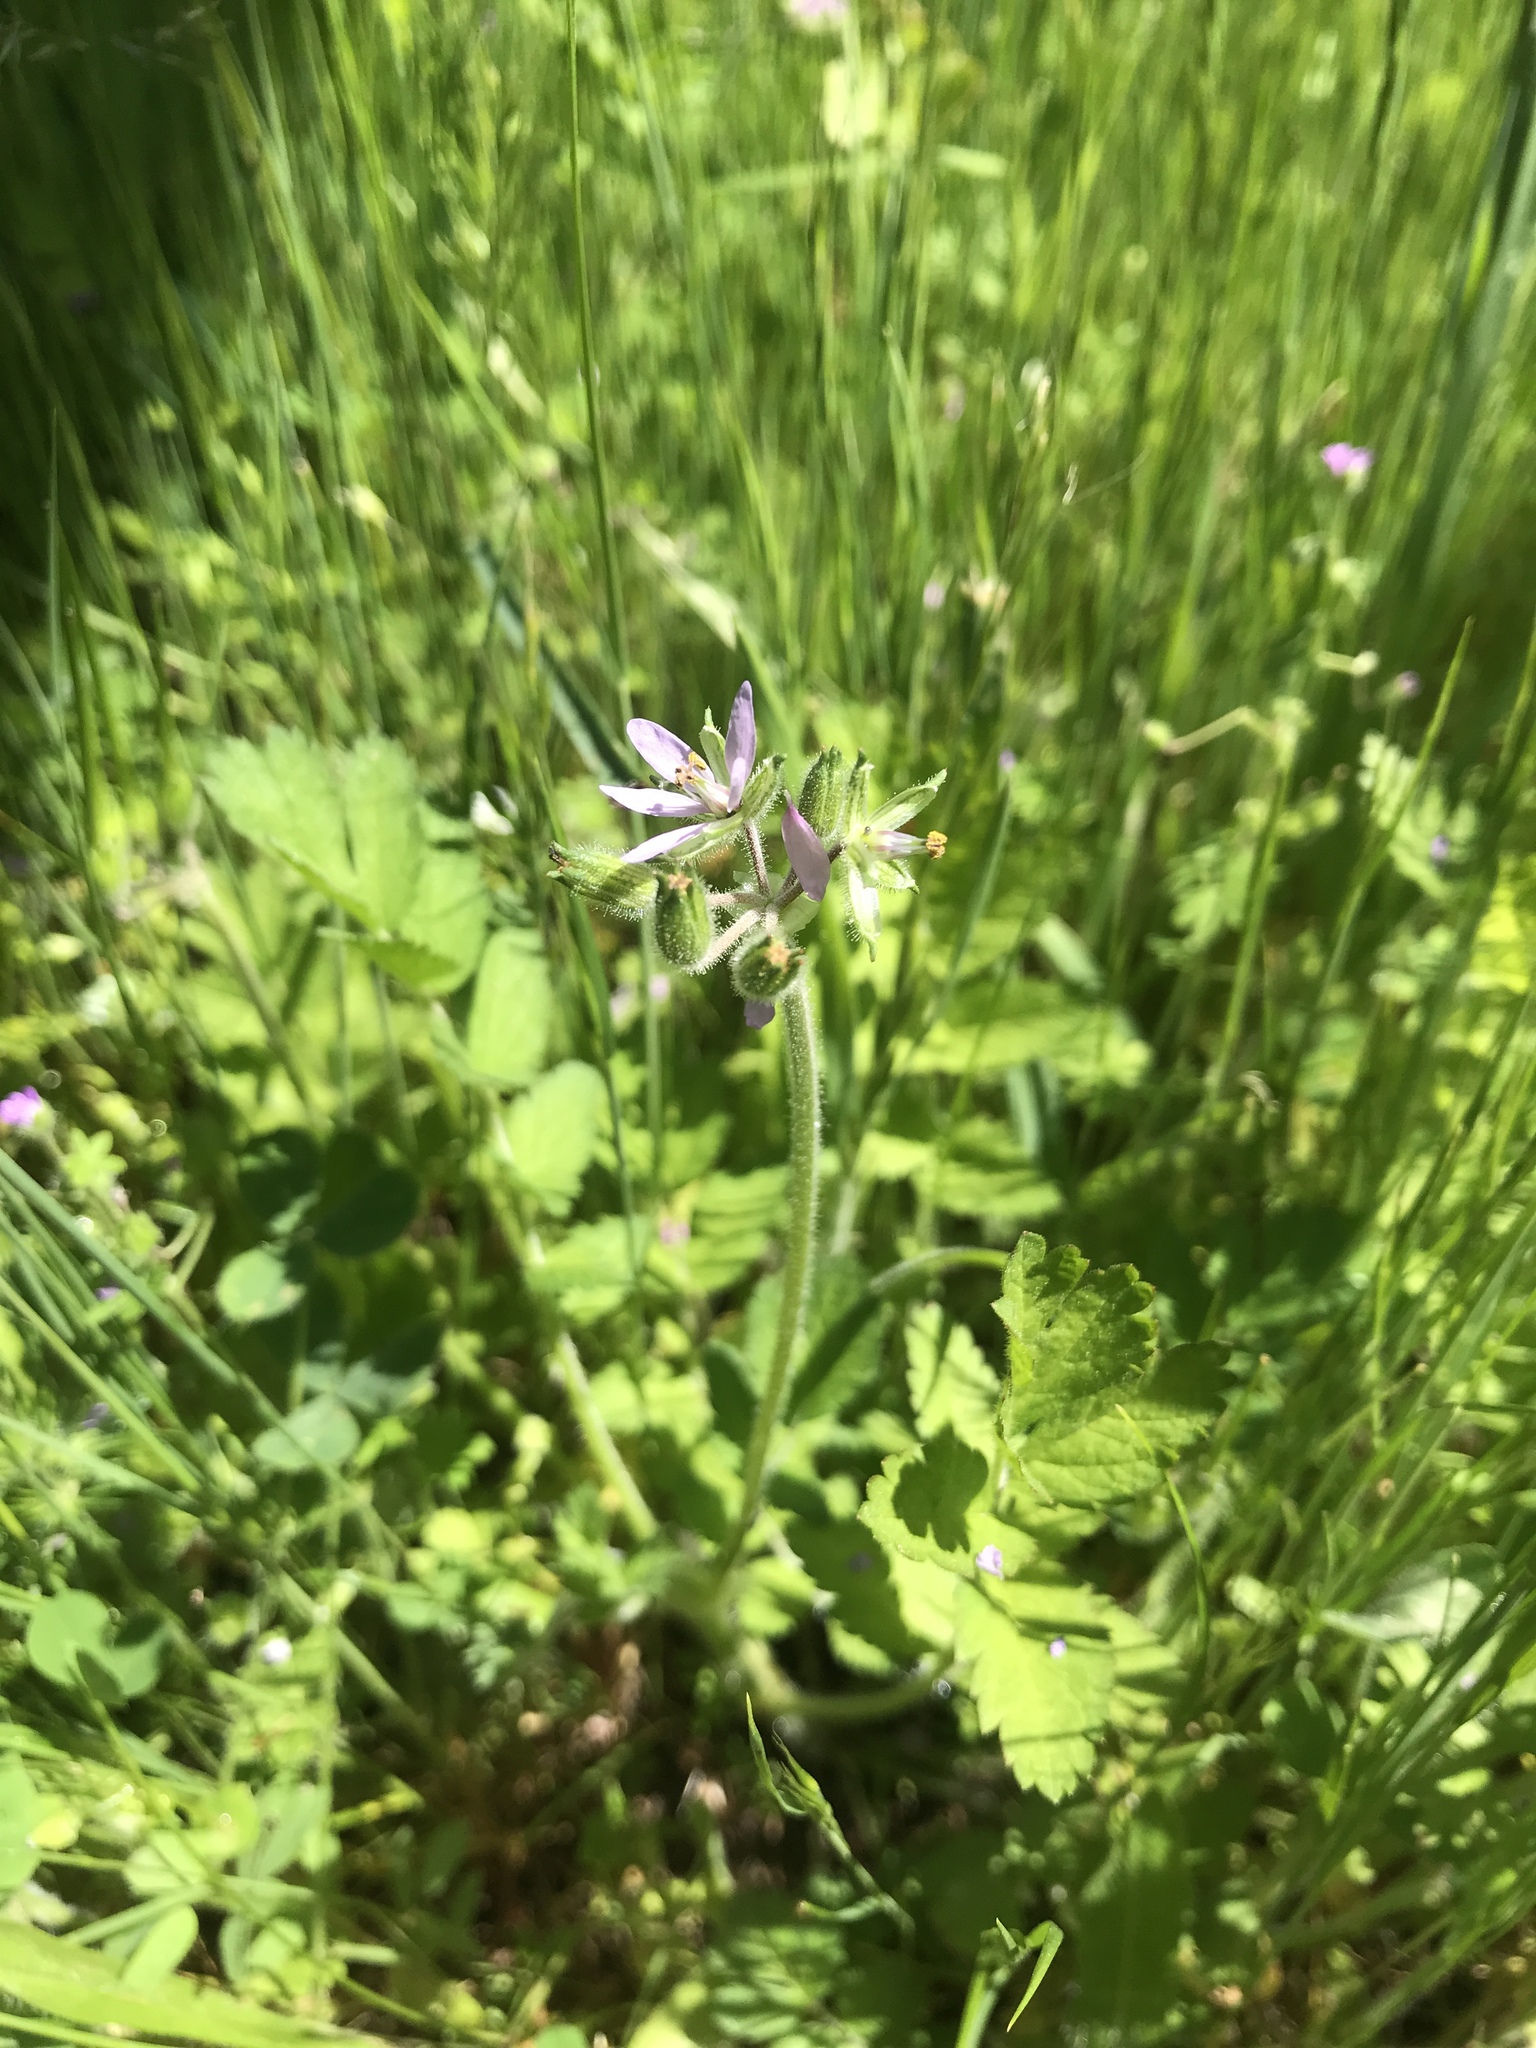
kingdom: Plantae
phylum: Tracheophyta
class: Magnoliopsida
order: Geraniales
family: Geraniaceae
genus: Erodium
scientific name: Erodium moschatum
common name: Musk stork's-bill
